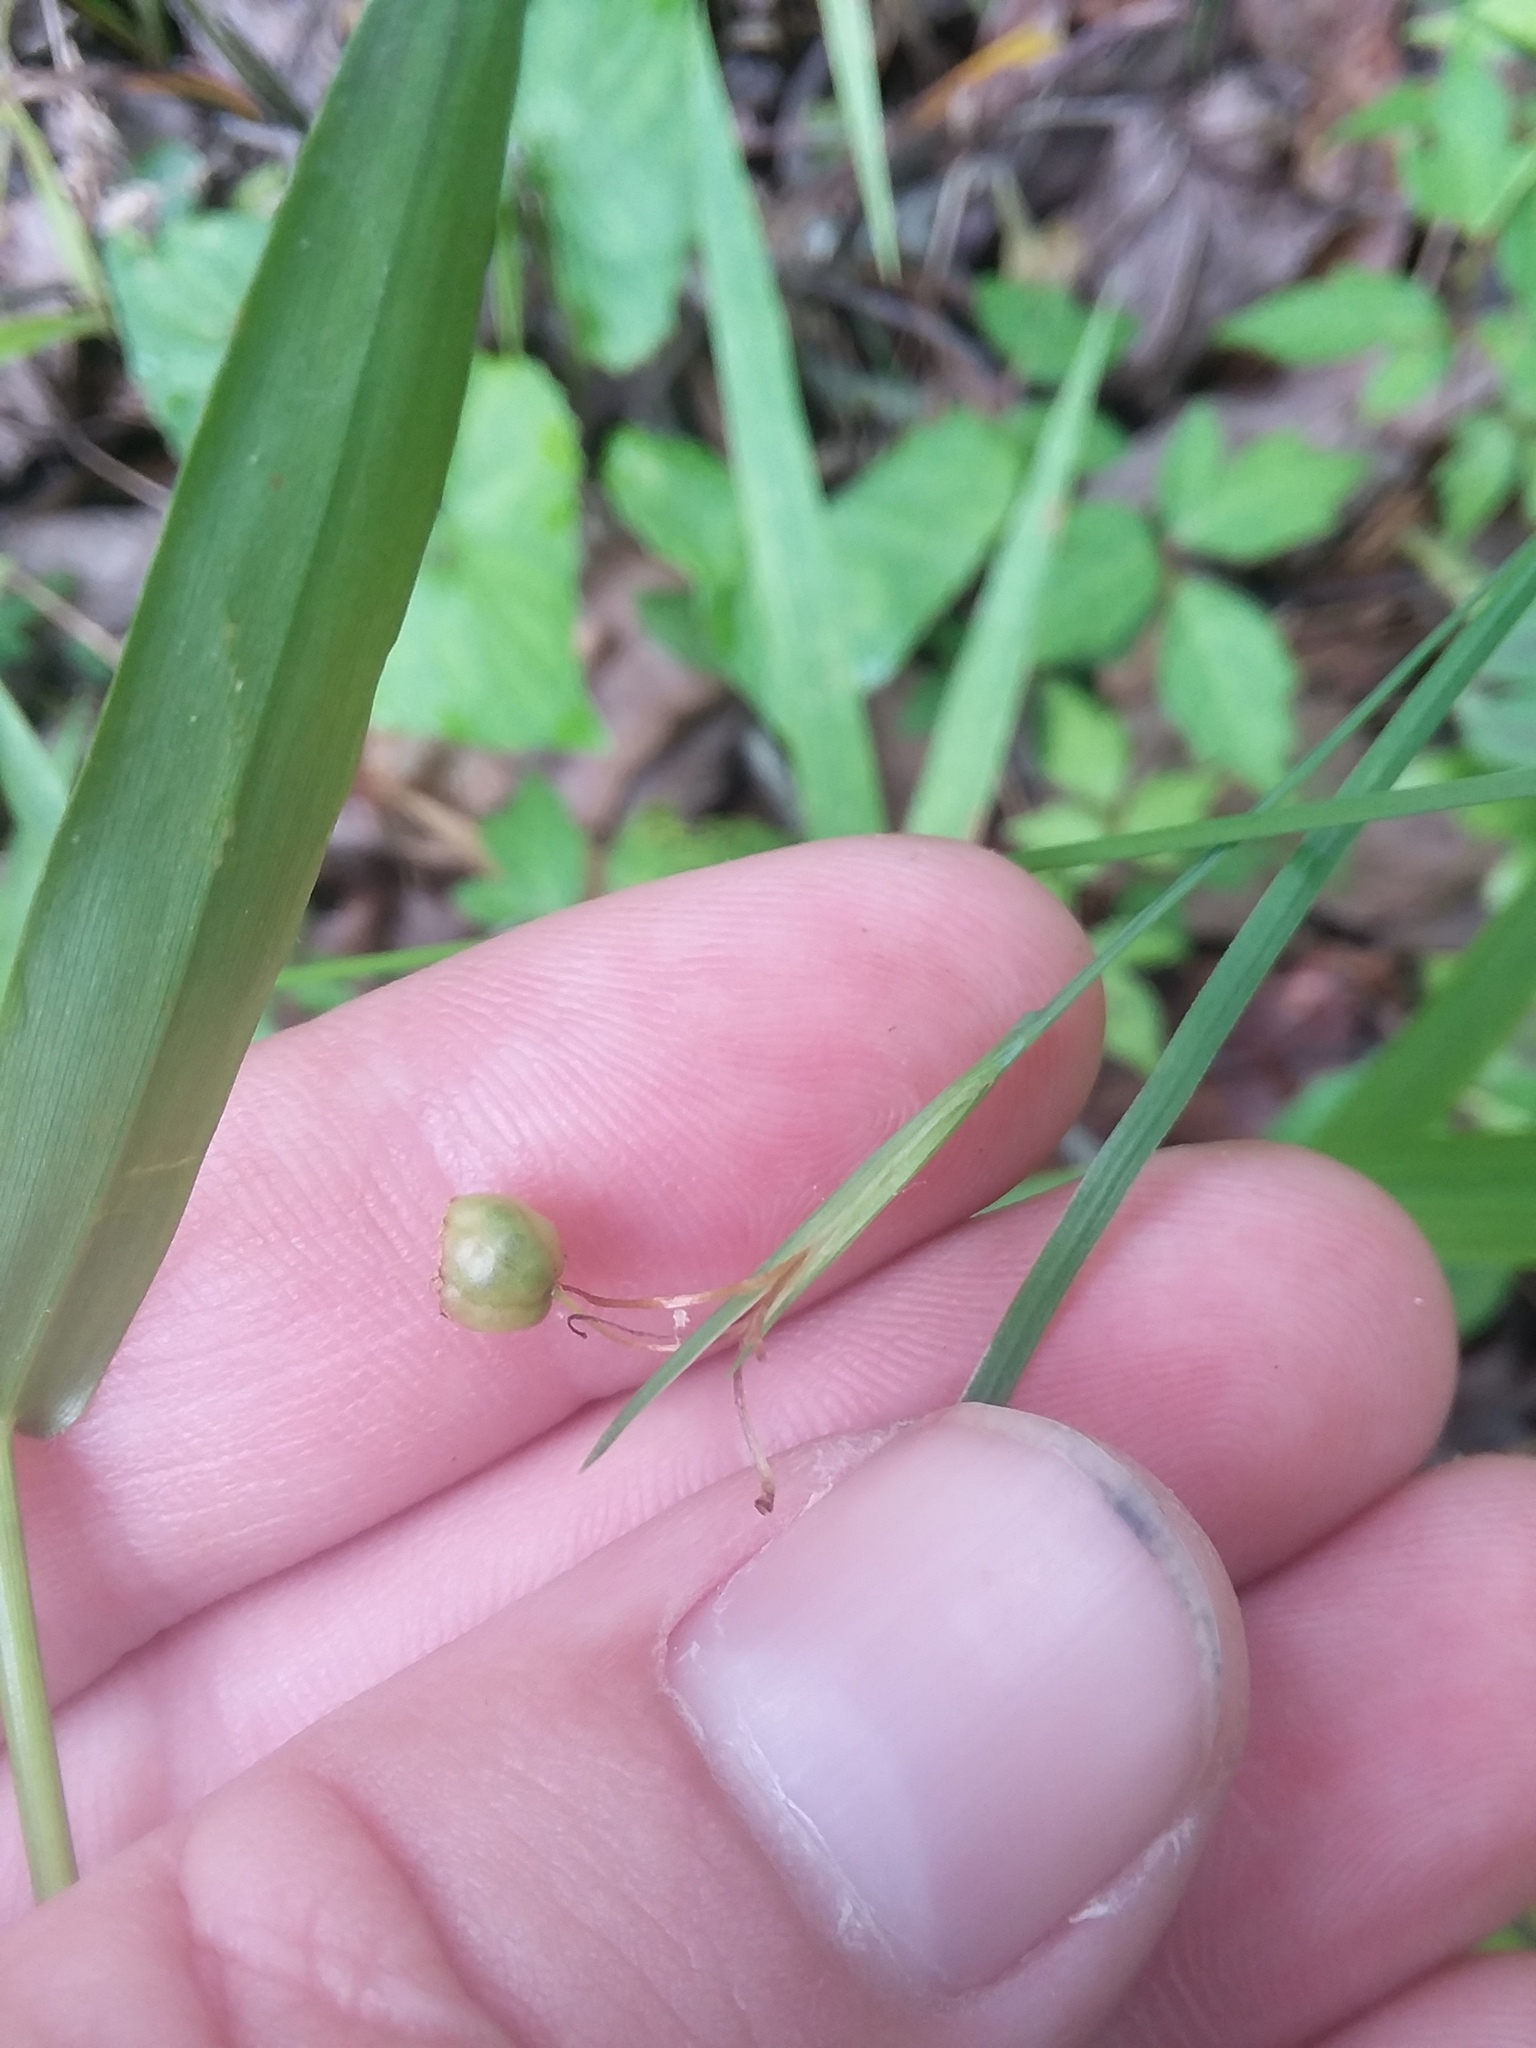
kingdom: Plantae
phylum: Tracheophyta
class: Liliopsida
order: Asparagales
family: Iridaceae
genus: Sisyrinchium
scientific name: Sisyrinchium angustifolium
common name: Narrow-leaf blue-eyed-grass
